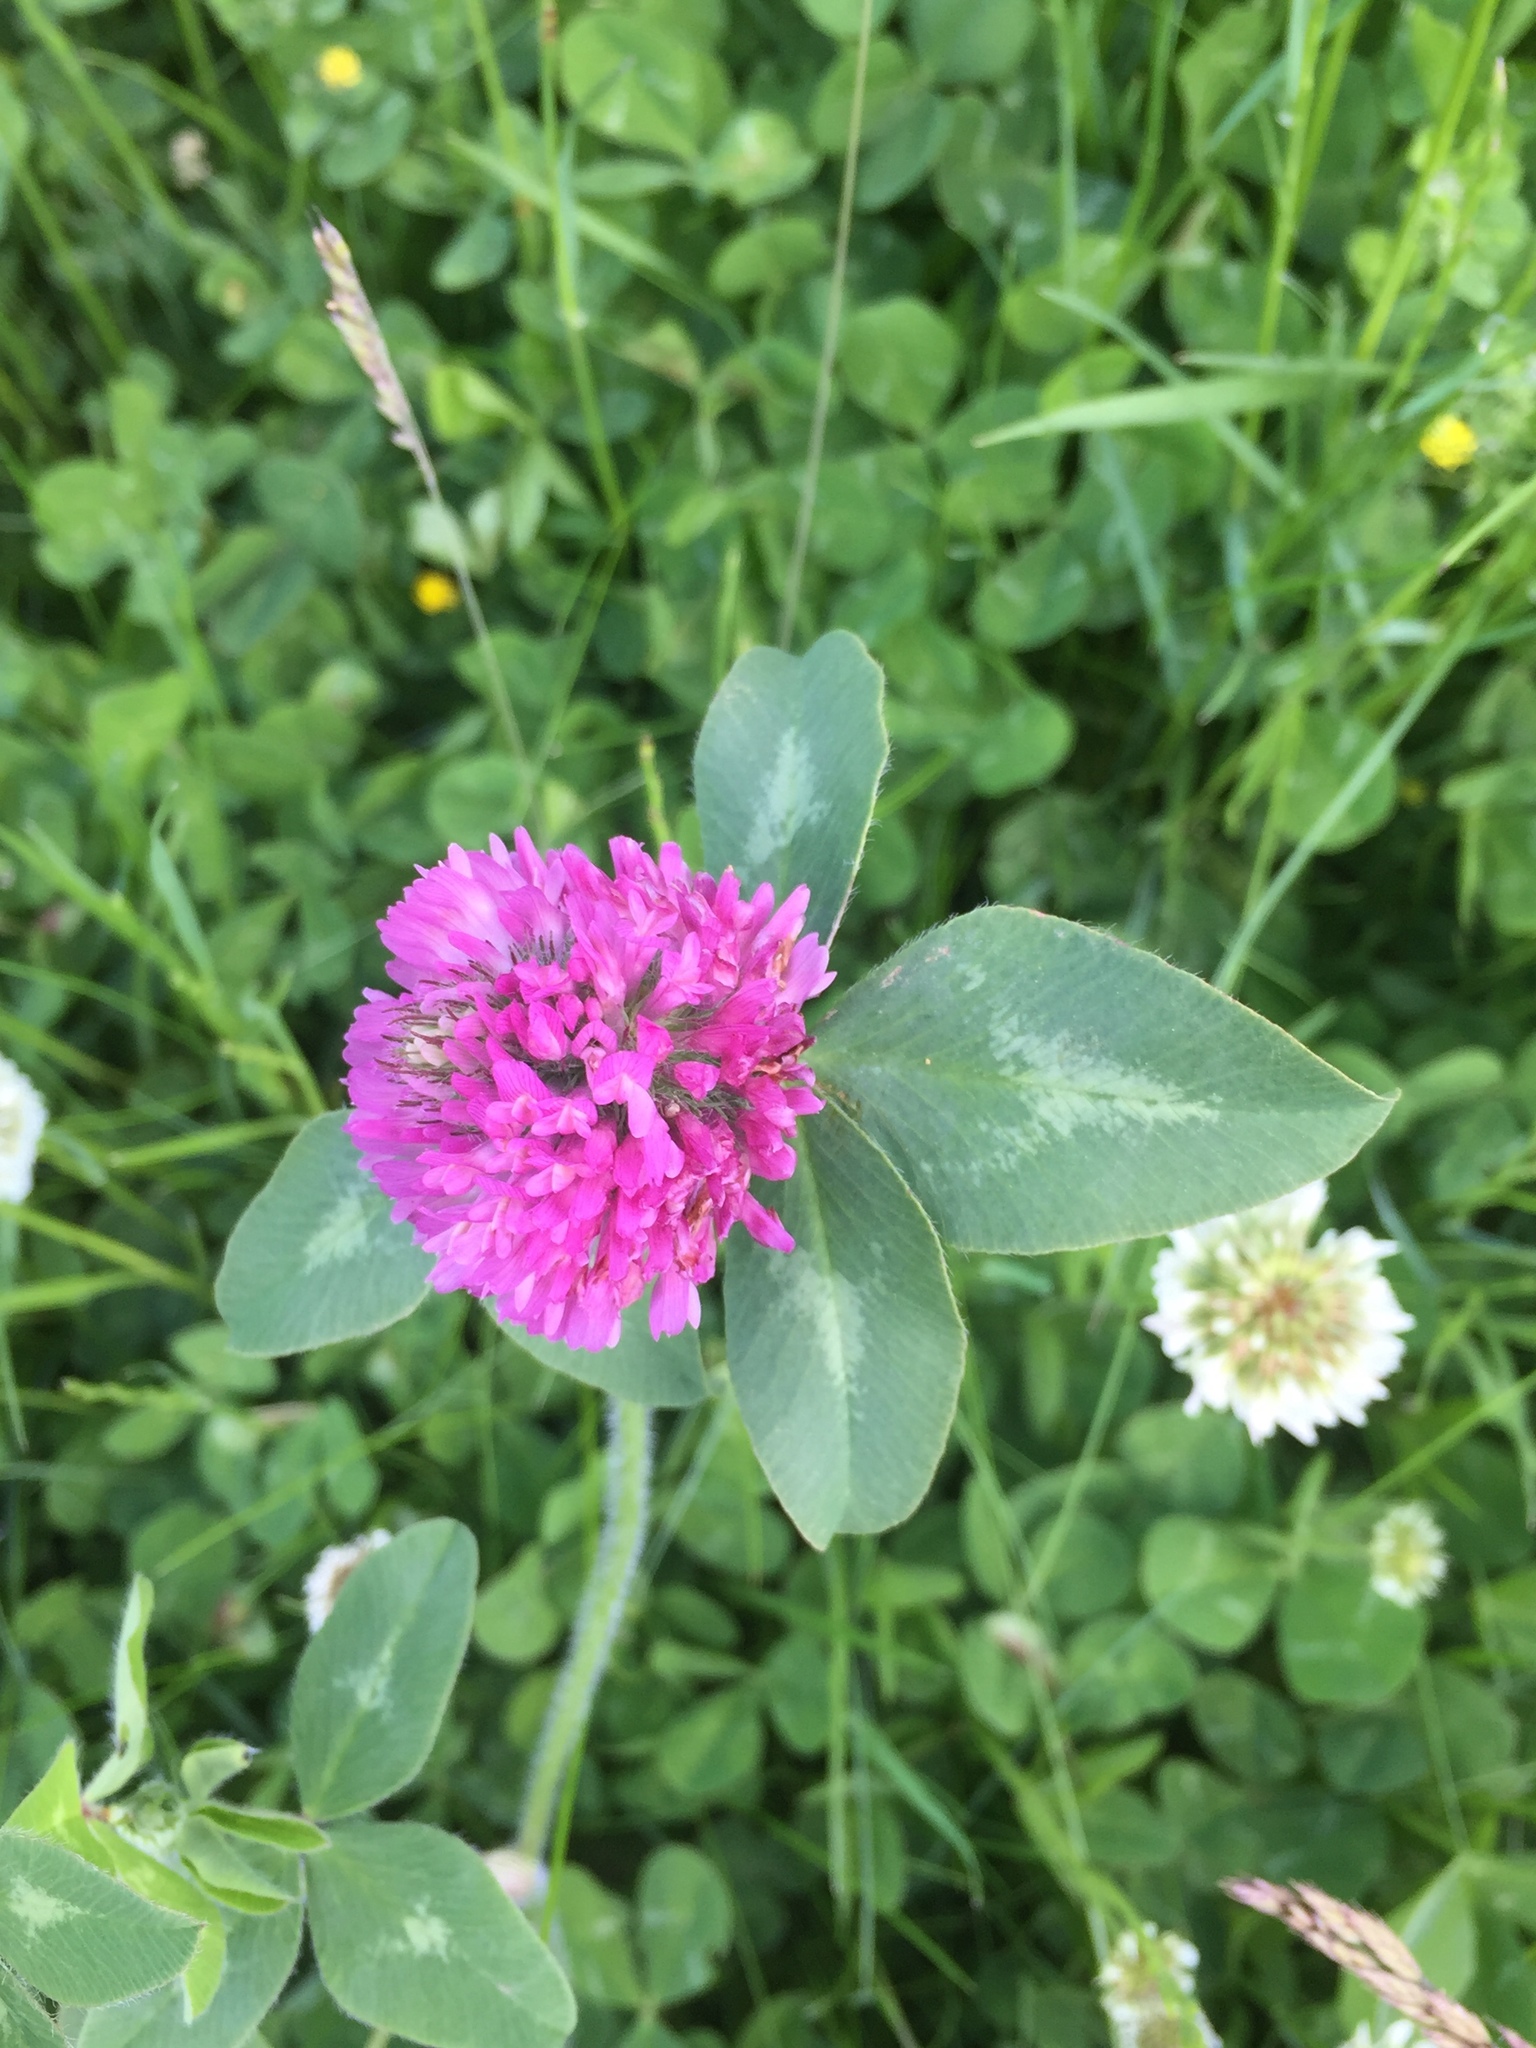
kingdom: Plantae
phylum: Tracheophyta
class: Magnoliopsida
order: Fabales
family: Fabaceae
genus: Trifolium
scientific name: Trifolium pratense
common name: Red clover
